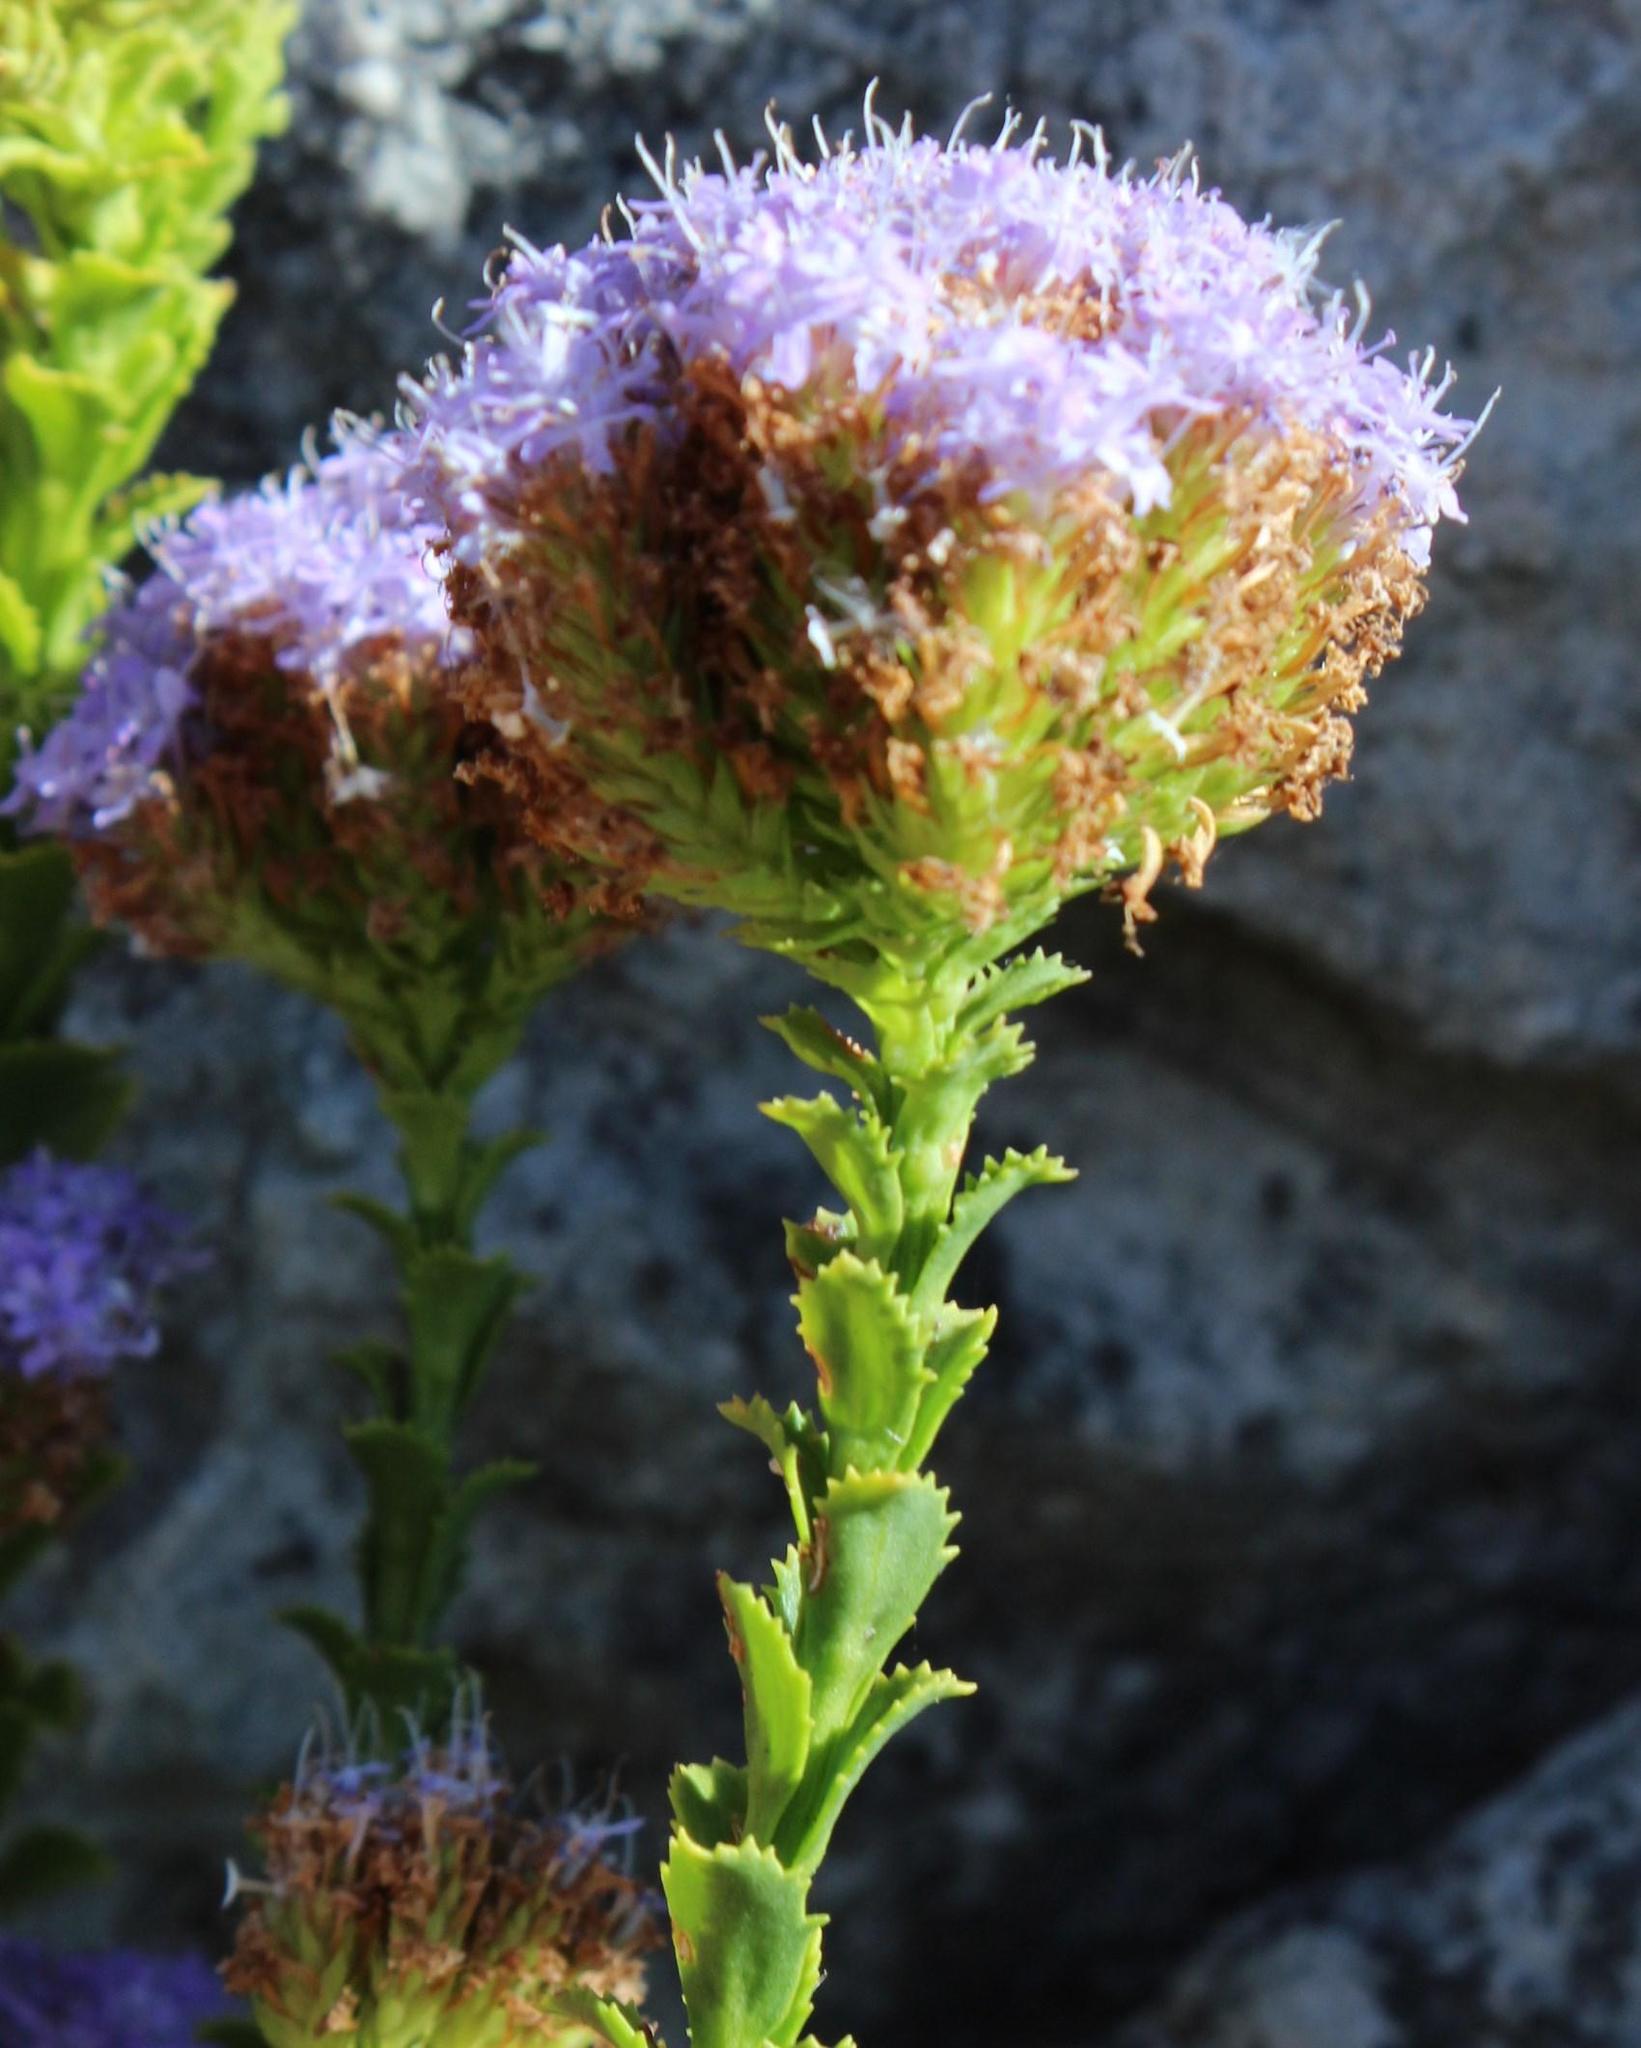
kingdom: Plantae
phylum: Tracheophyta
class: Magnoliopsida
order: Lamiales
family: Scrophulariaceae
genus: Pseudoselago
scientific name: Pseudoselago serrata
